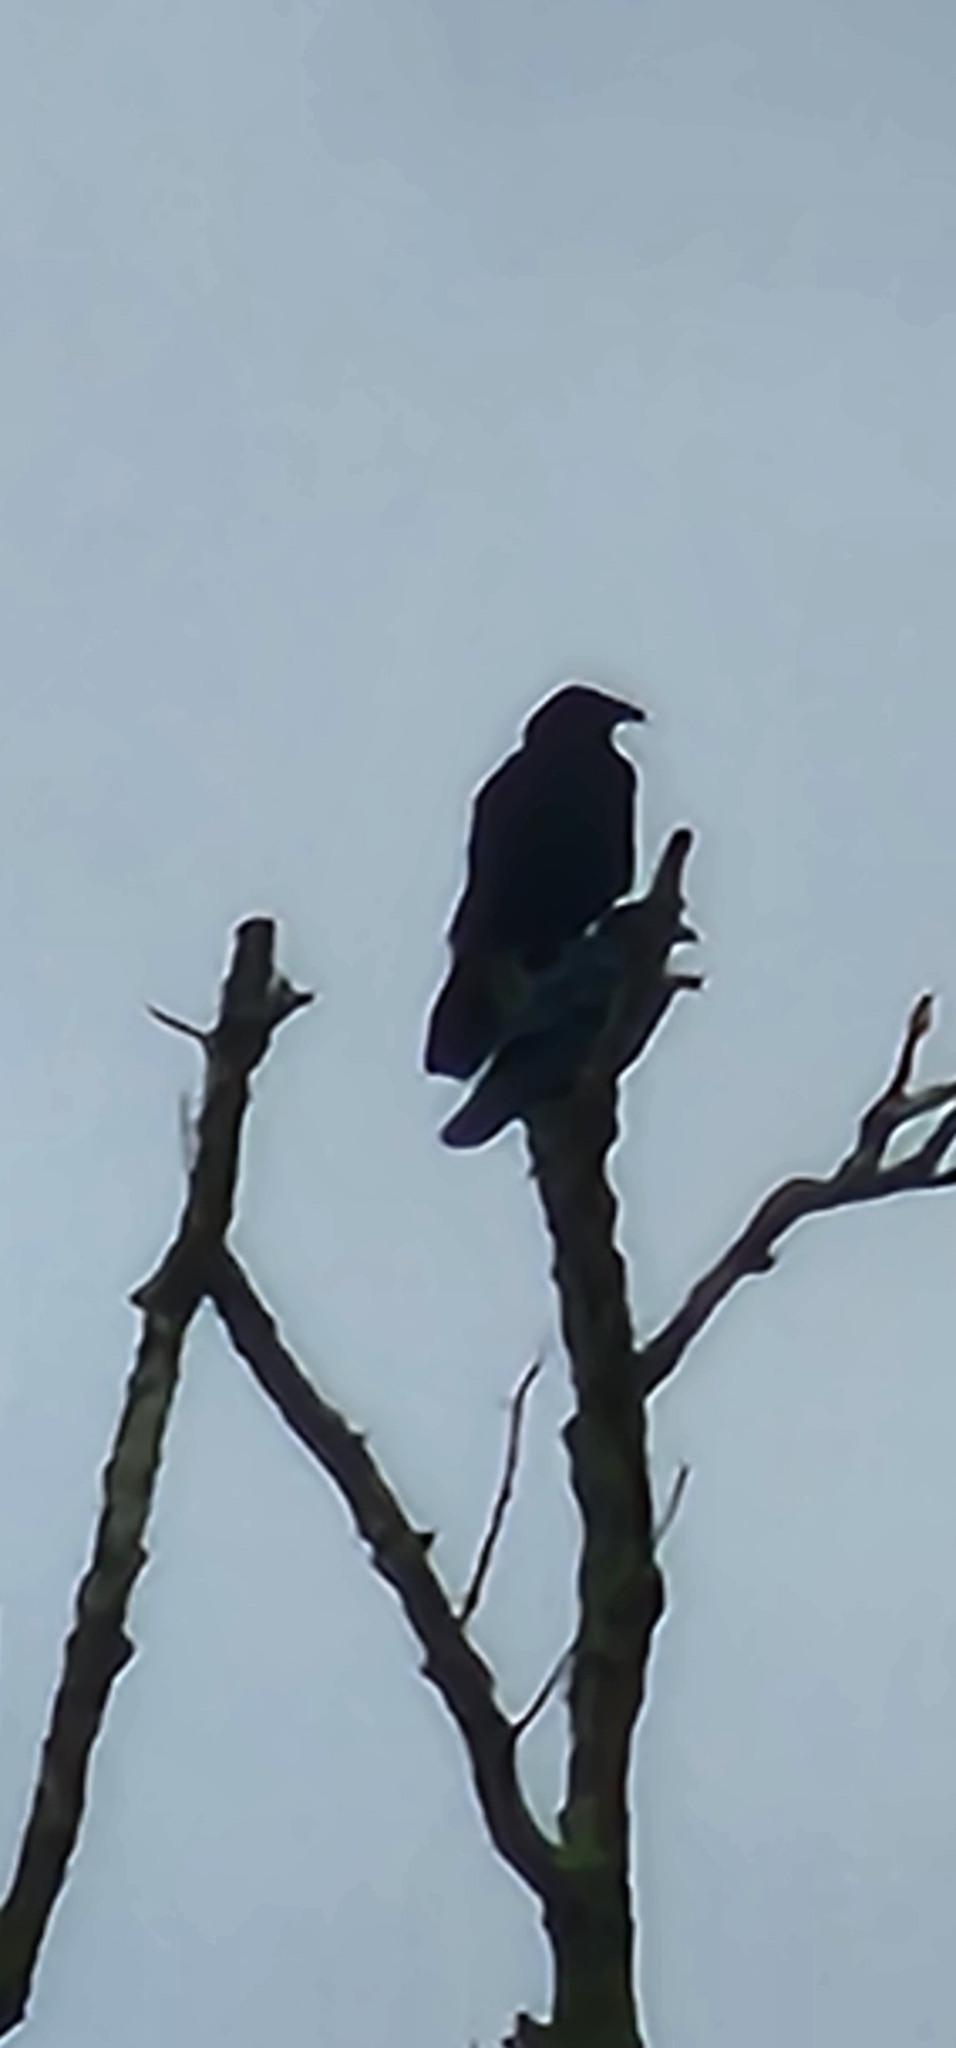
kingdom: Animalia
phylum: Chordata
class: Aves
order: Passeriformes
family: Corvidae
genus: Corvus
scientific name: Corvus corax
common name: Common raven
